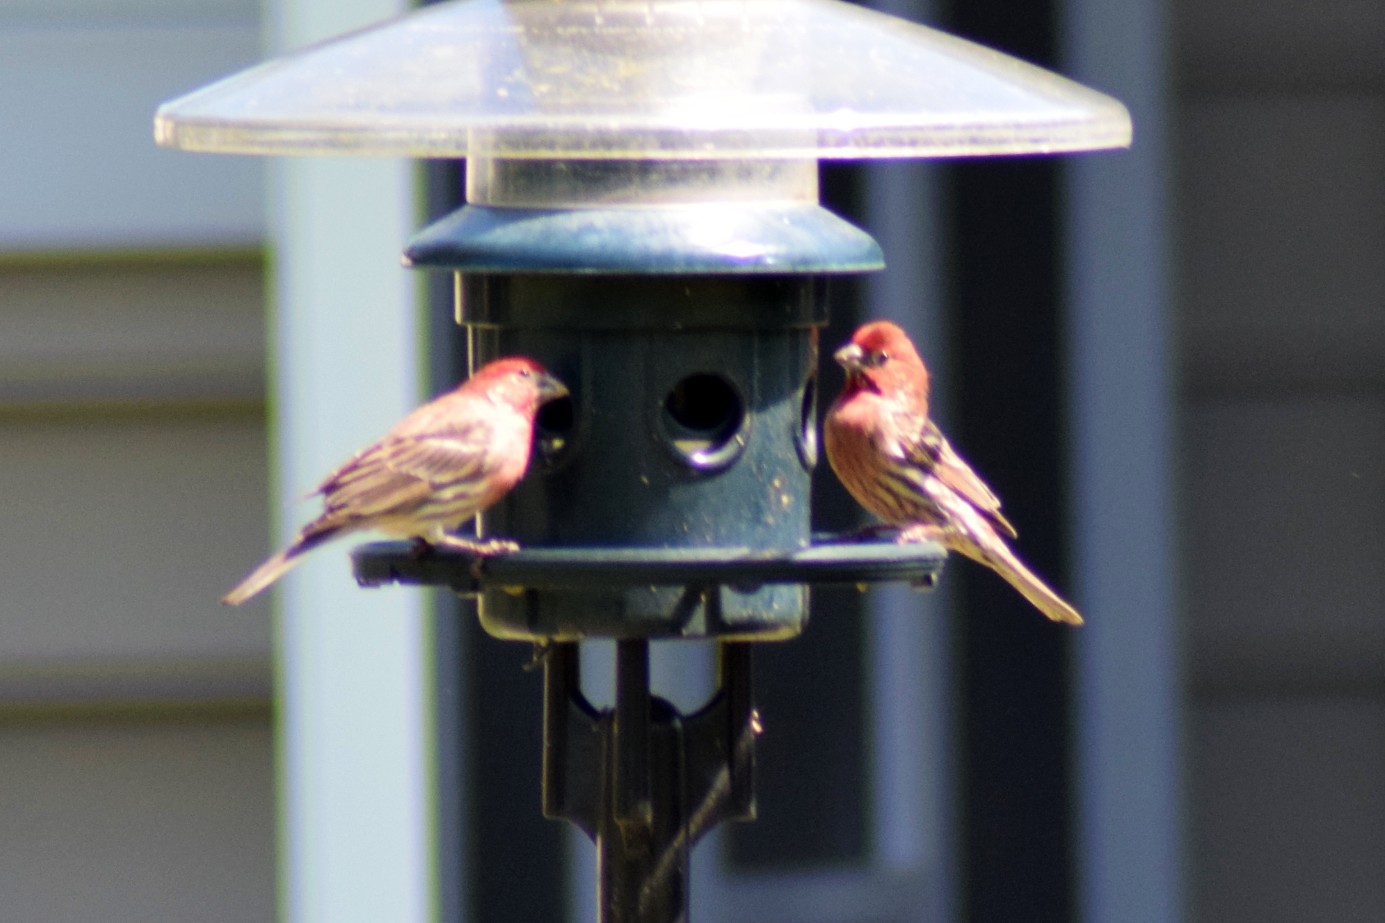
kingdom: Animalia
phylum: Chordata
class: Aves
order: Passeriformes
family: Fringillidae
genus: Haemorhous
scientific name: Haemorhous mexicanus
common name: House finch
